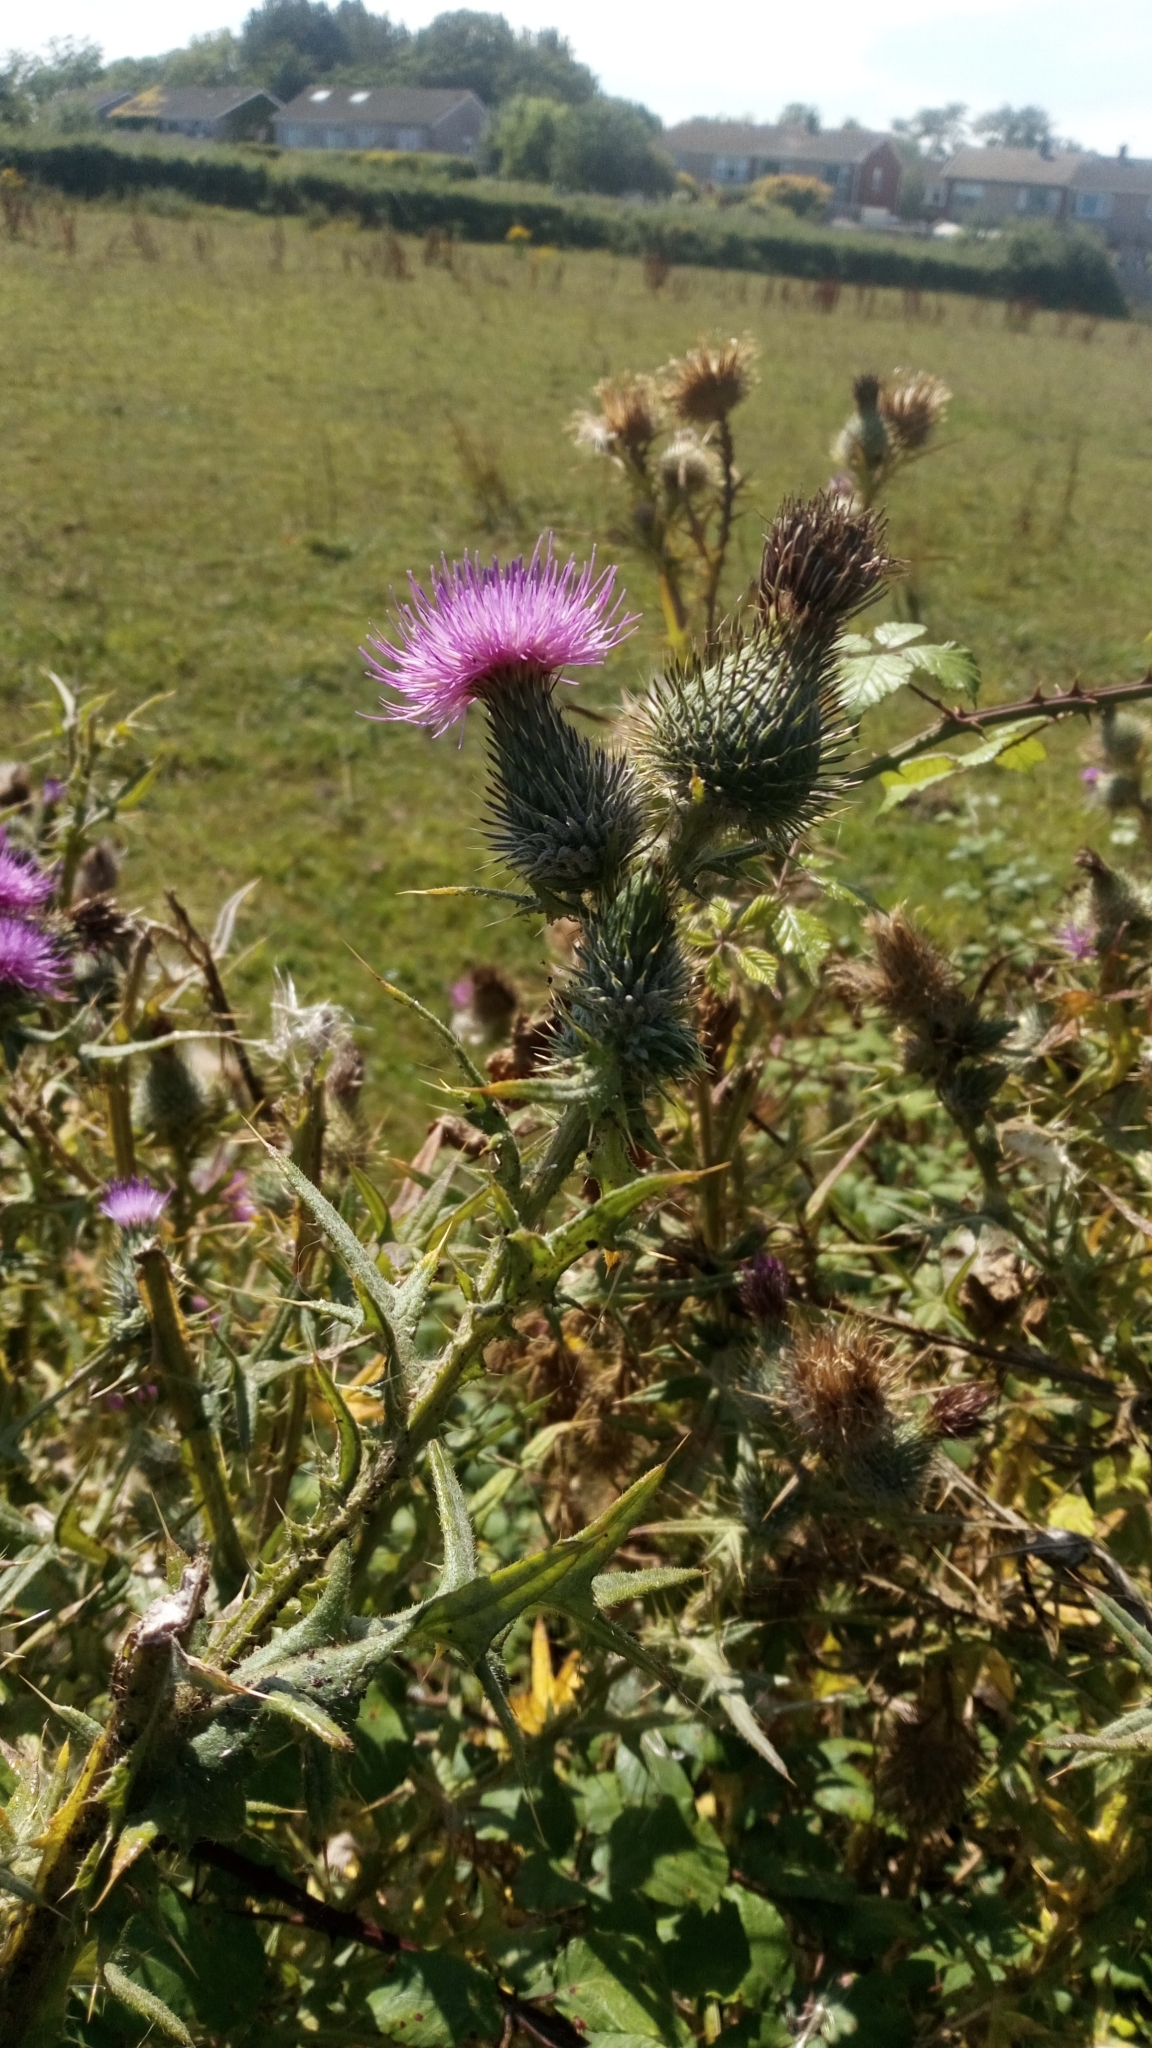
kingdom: Plantae
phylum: Tracheophyta
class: Magnoliopsida
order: Asterales
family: Asteraceae
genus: Cirsium
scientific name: Cirsium vulgare
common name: Bull thistle
